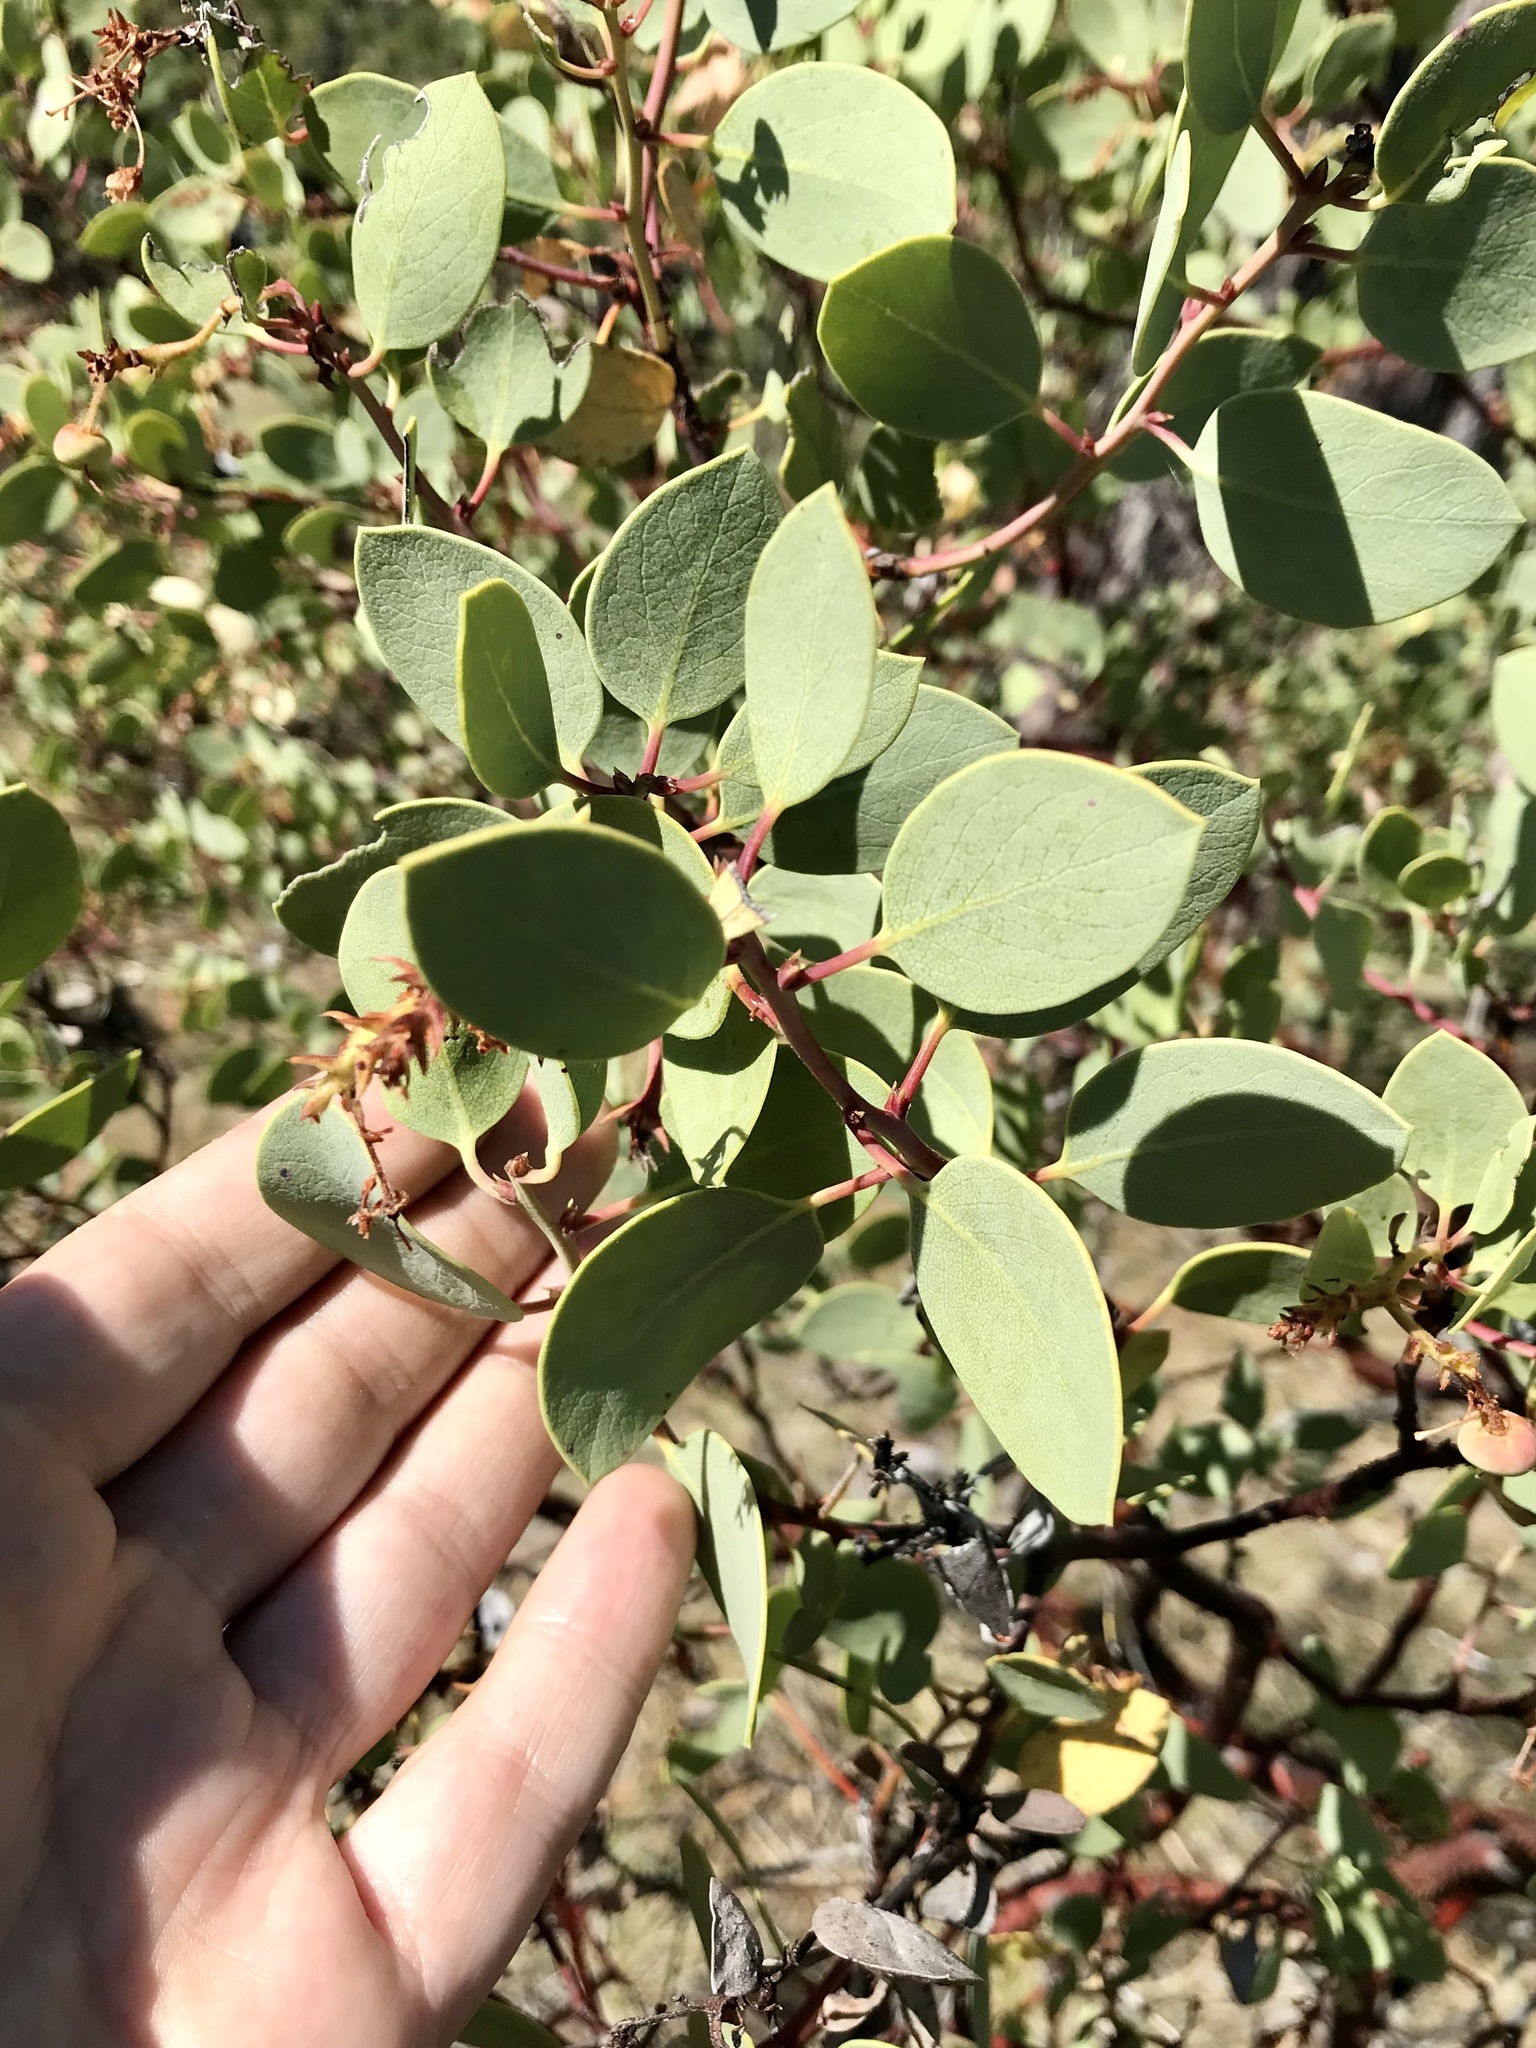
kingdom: Plantae
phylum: Tracheophyta
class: Magnoliopsida
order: Ericales
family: Ericaceae
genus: Arctostaphylos
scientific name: Arctostaphylos viscida
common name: White-leaf manzanita
